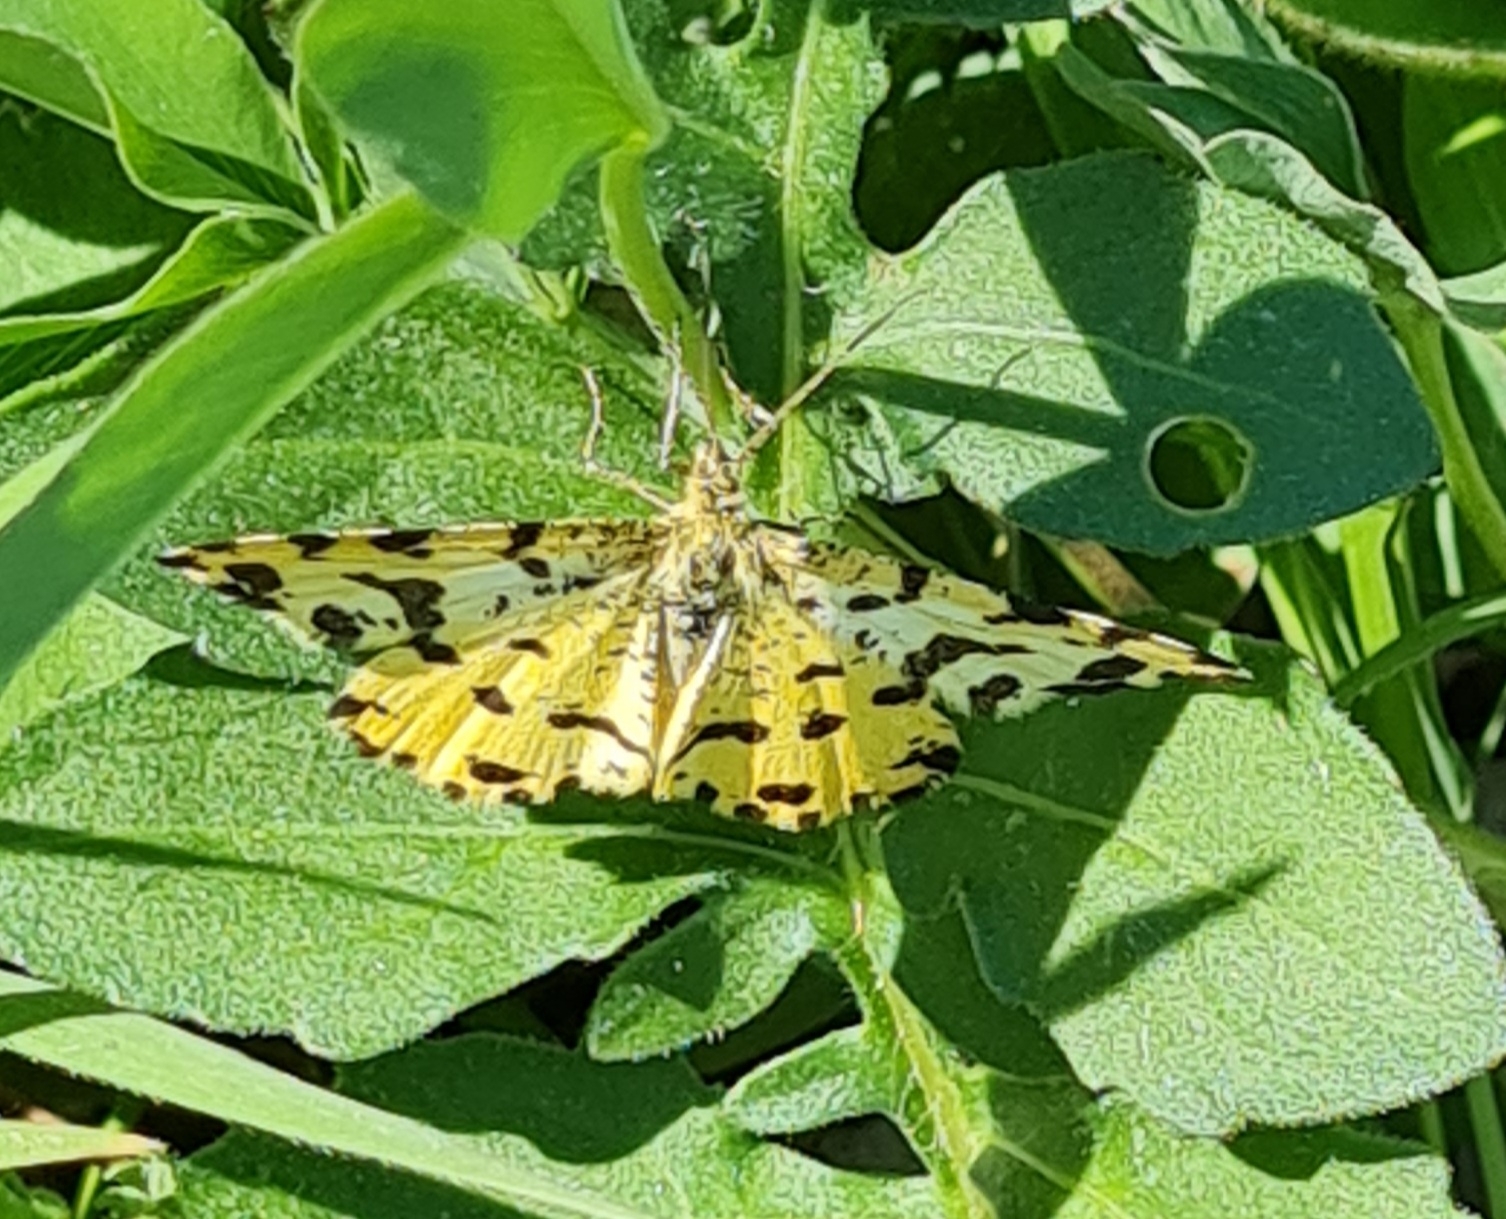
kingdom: Animalia
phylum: Arthropoda
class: Insecta
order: Lepidoptera
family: Geometridae
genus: Pseudopanthera
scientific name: Pseudopanthera macularia
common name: Speckled yellow
